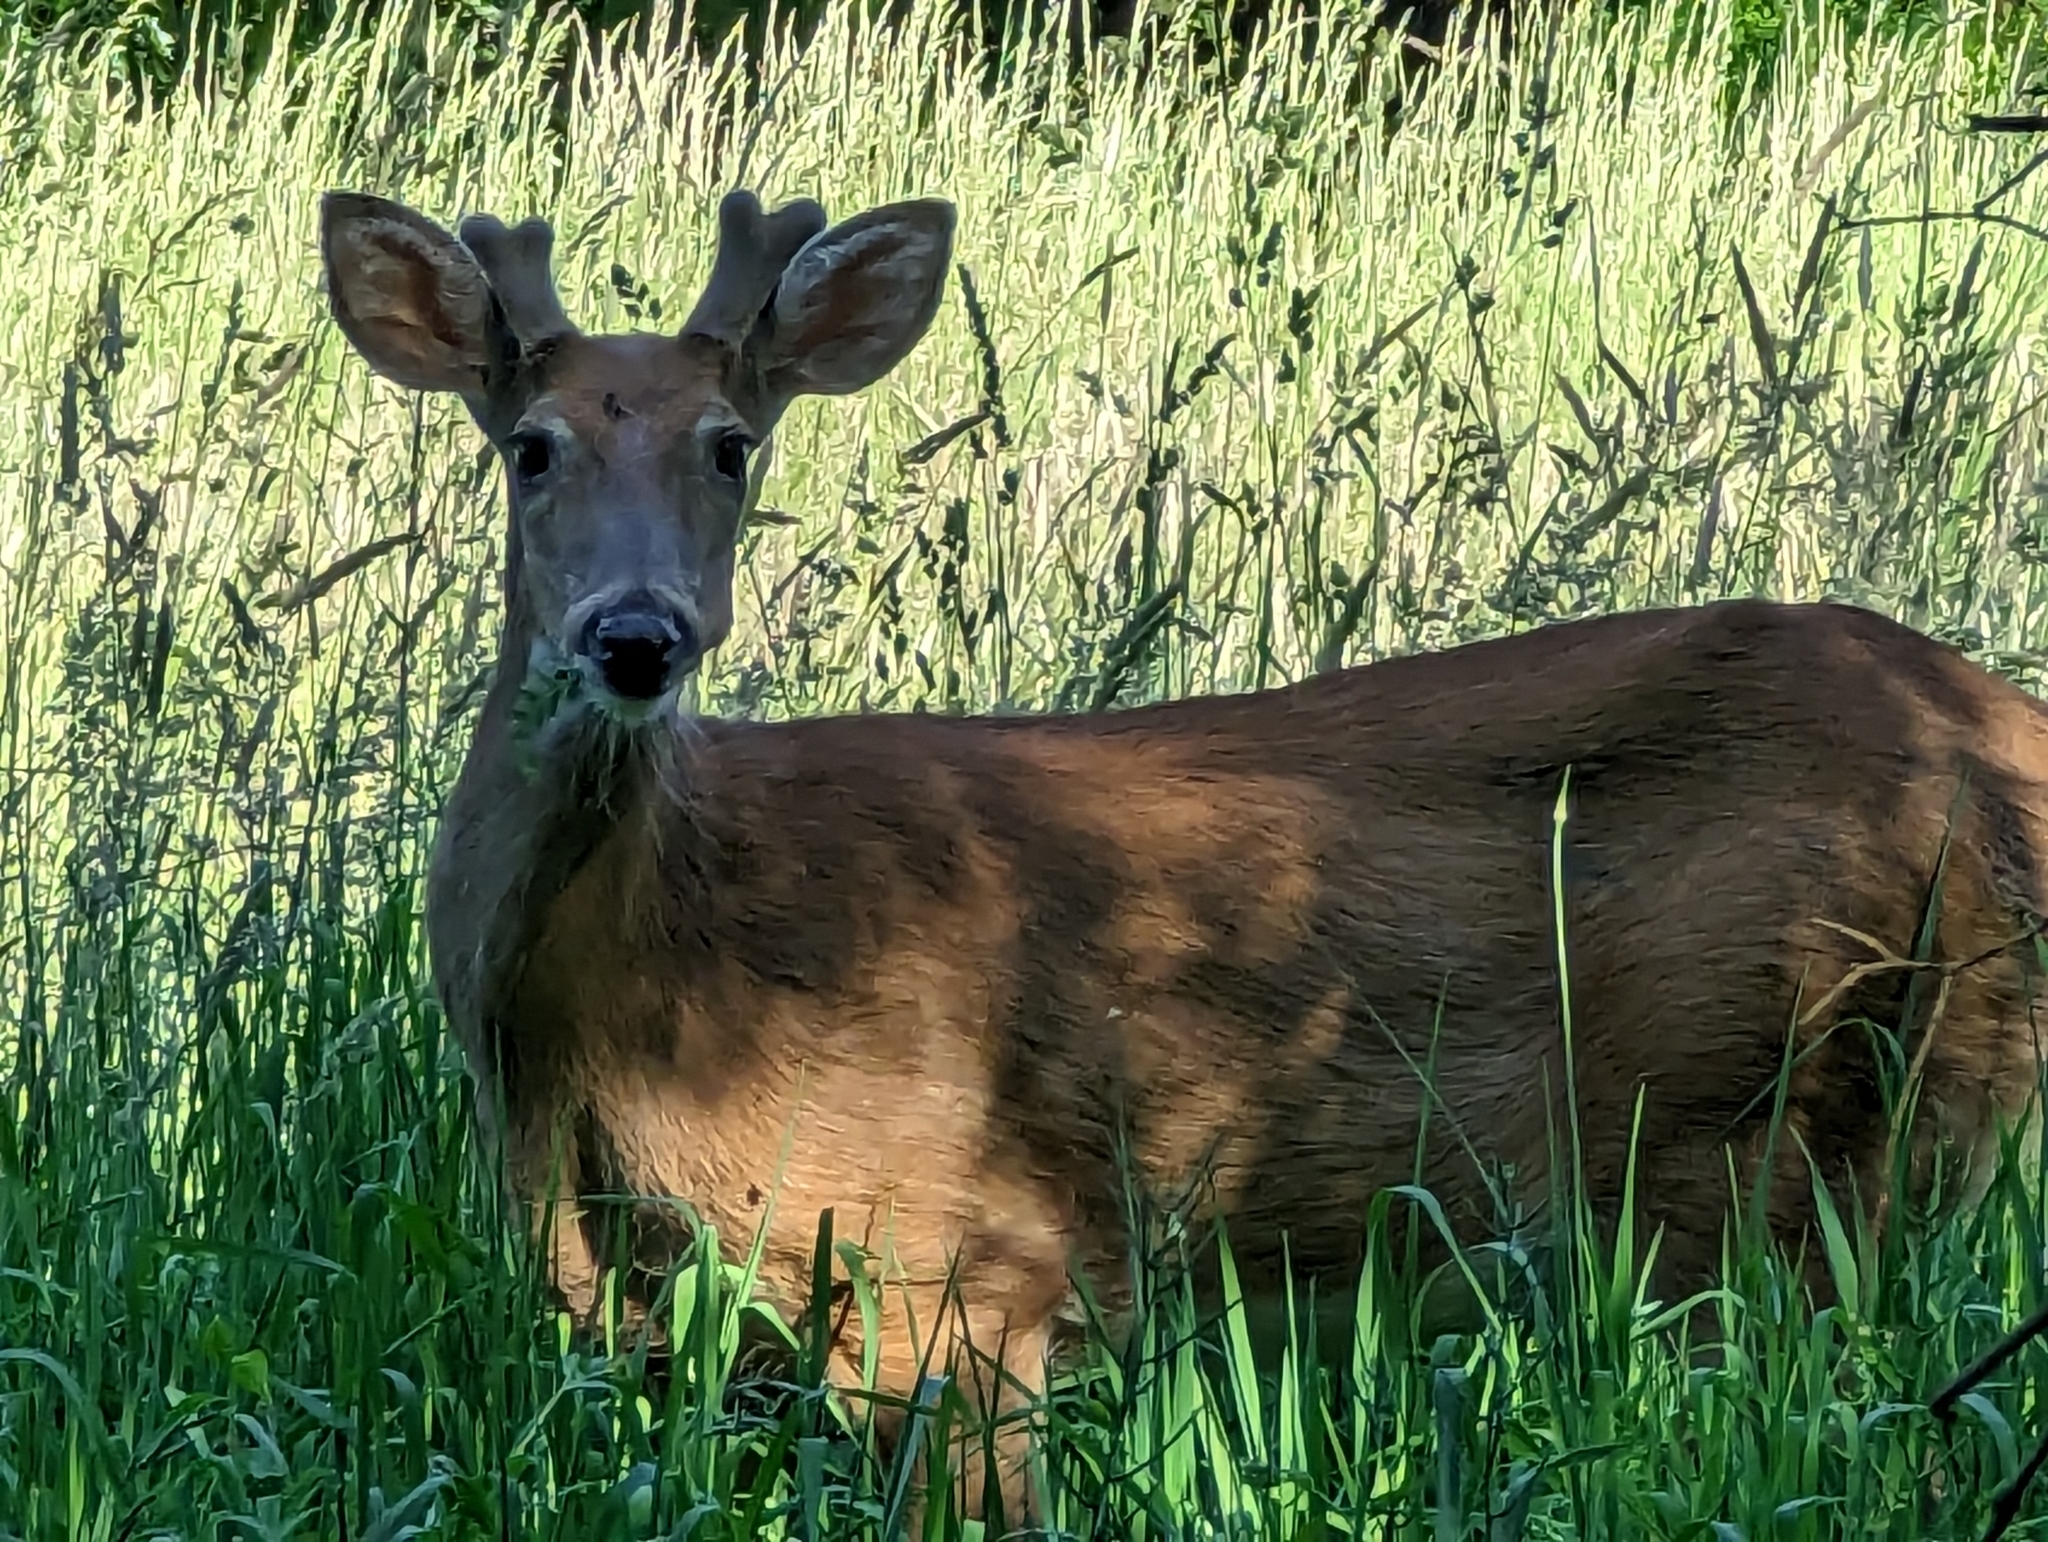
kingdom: Animalia
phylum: Chordata
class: Mammalia
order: Artiodactyla
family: Cervidae
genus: Odocoileus
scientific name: Odocoileus virginianus
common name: White-tailed deer
